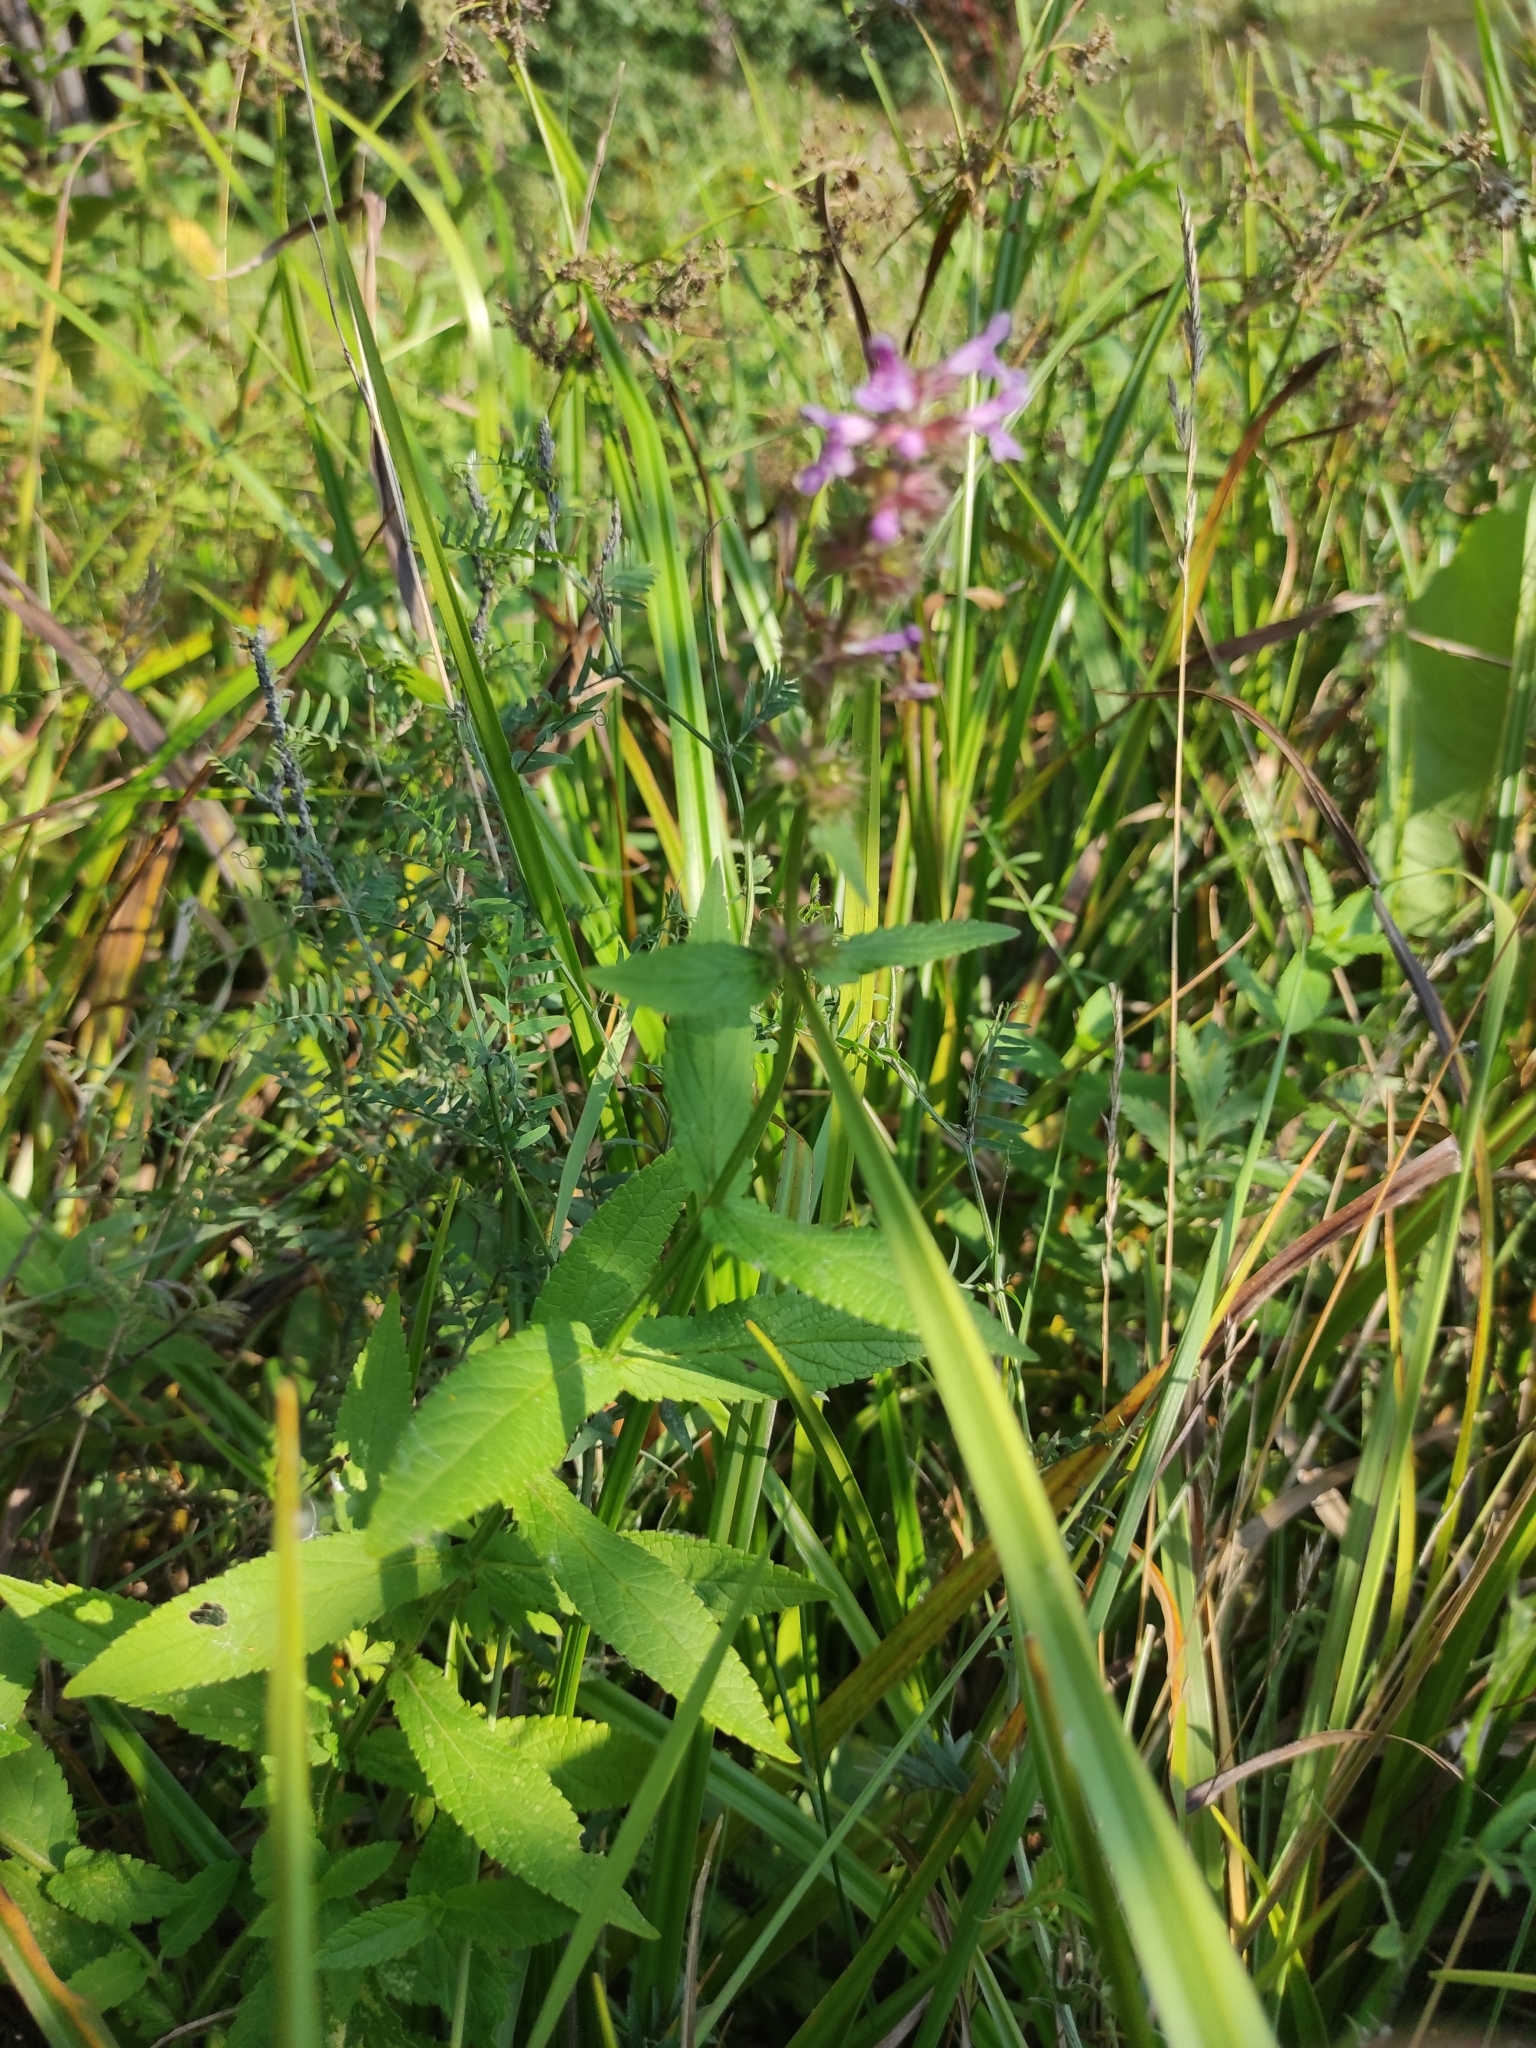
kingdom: Plantae
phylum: Tracheophyta
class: Magnoliopsida
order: Lamiales
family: Lamiaceae
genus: Stachys
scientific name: Stachys palustris
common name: Marsh woundwort
